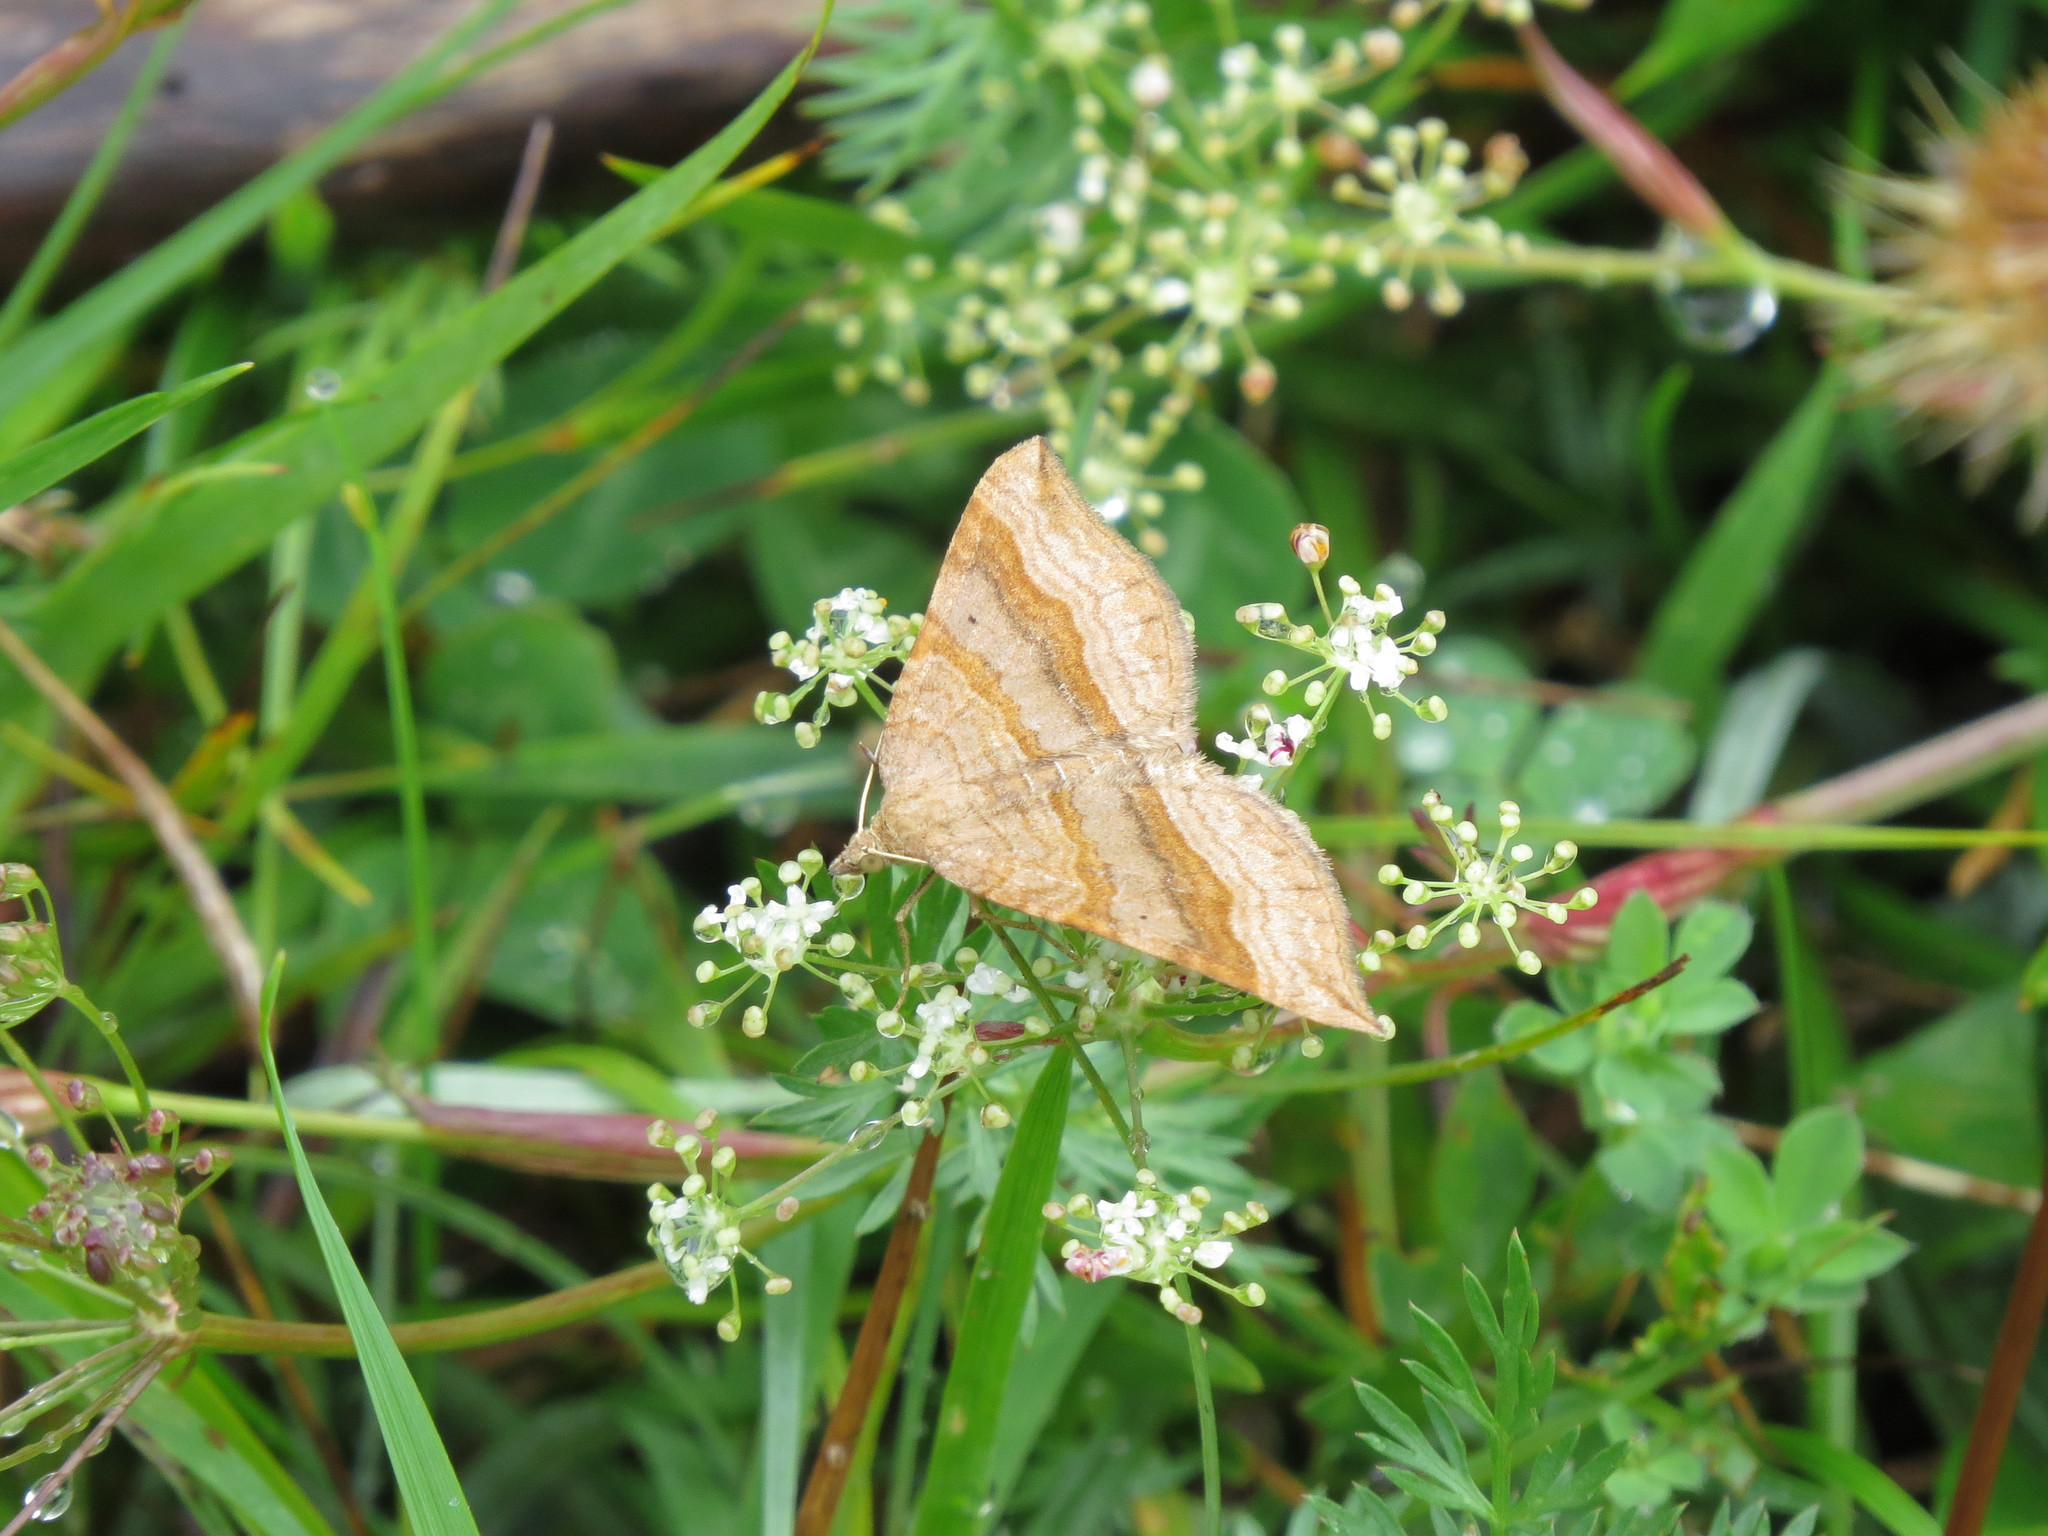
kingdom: Animalia
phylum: Arthropoda
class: Insecta
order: Lepidoptera
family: Geometridae
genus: Scotopteryx
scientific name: Scotopteryx chenopodiata
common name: Shaded broad-bar
